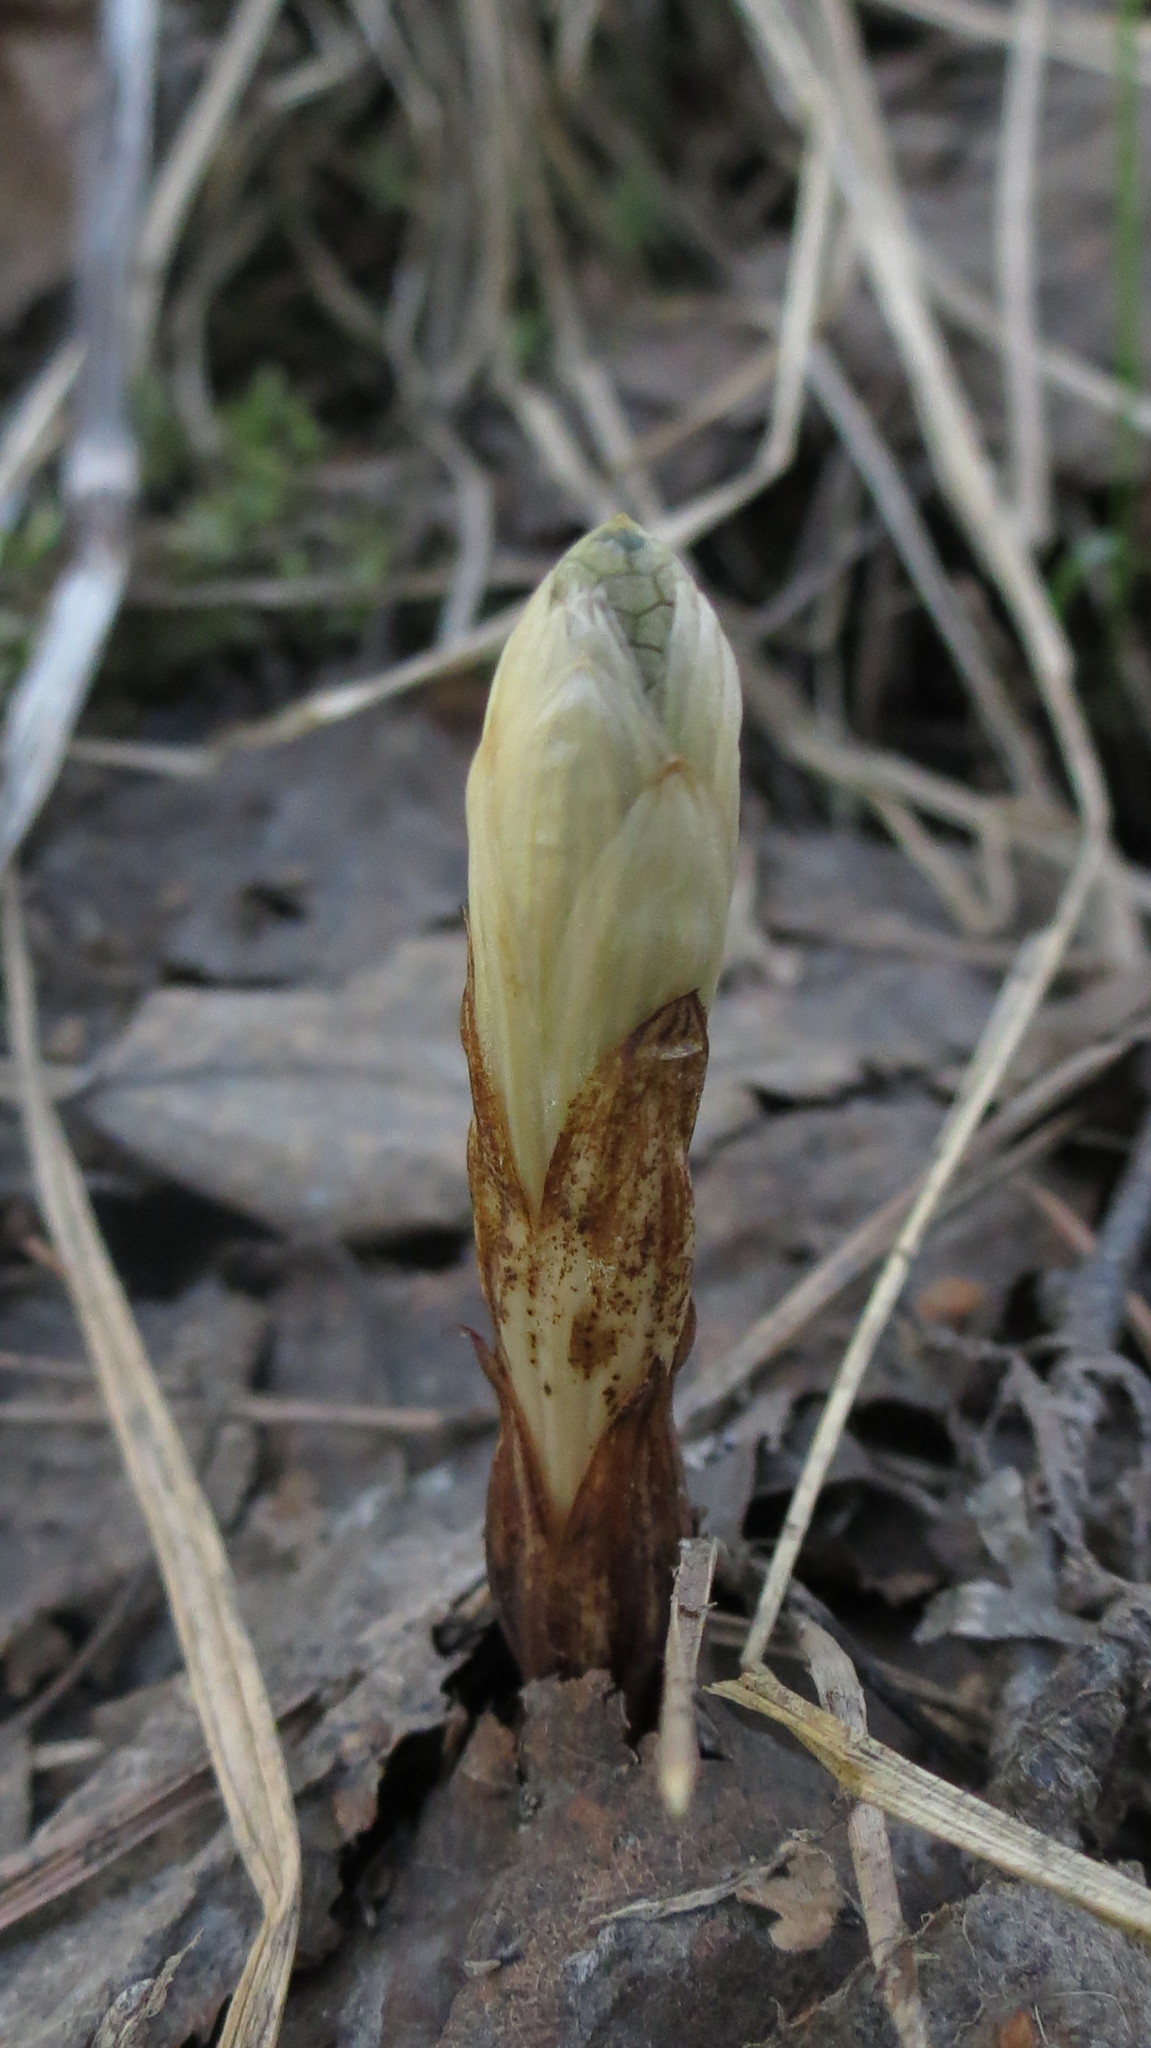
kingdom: Plantae
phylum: Tracheophyta
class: Polypodiopsida
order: Equisetales
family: Equisetaceae
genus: Equisetum
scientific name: Equisetum sylvaticum
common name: Wood horsetail
